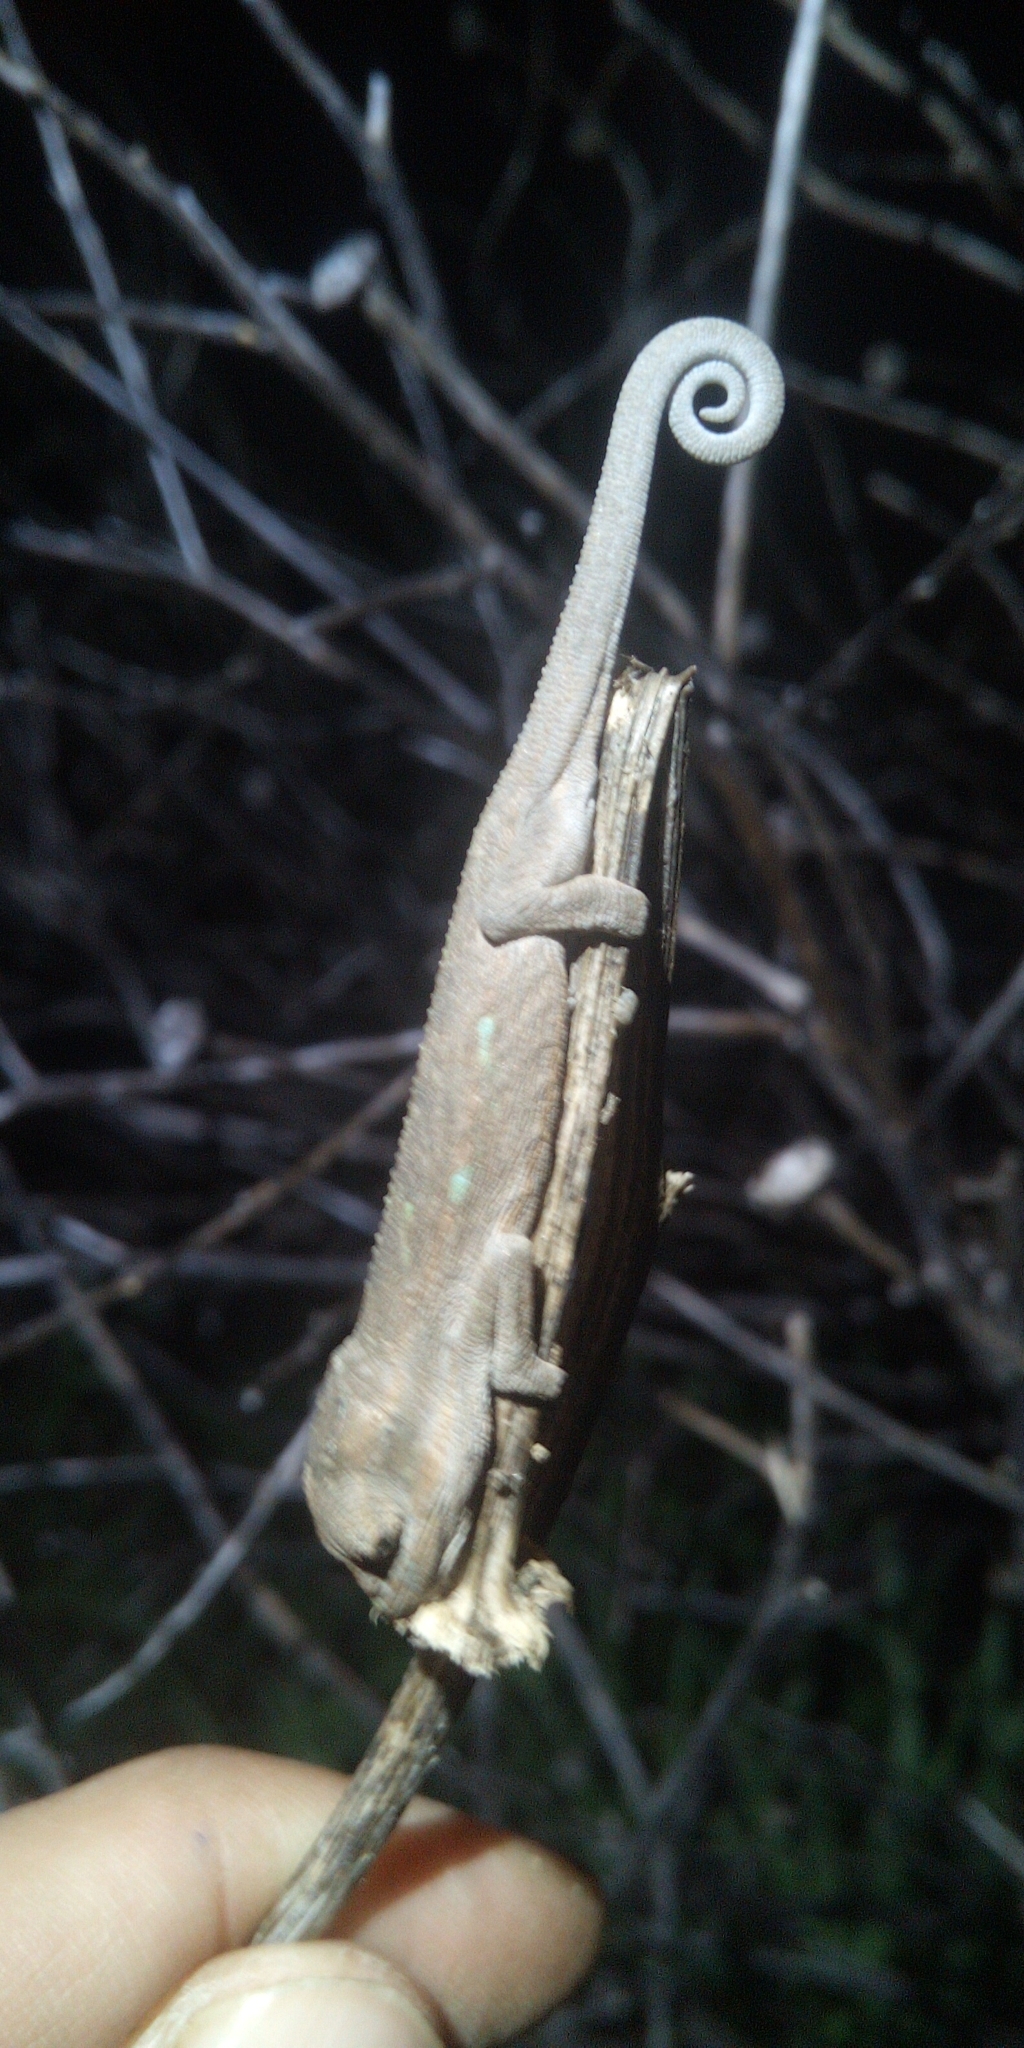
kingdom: Animalia
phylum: Chordata
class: Squamata
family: Chamaeleonidae
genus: Bradypodion
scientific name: Bradypodion pumilum
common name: Cape dwarf chameleon
